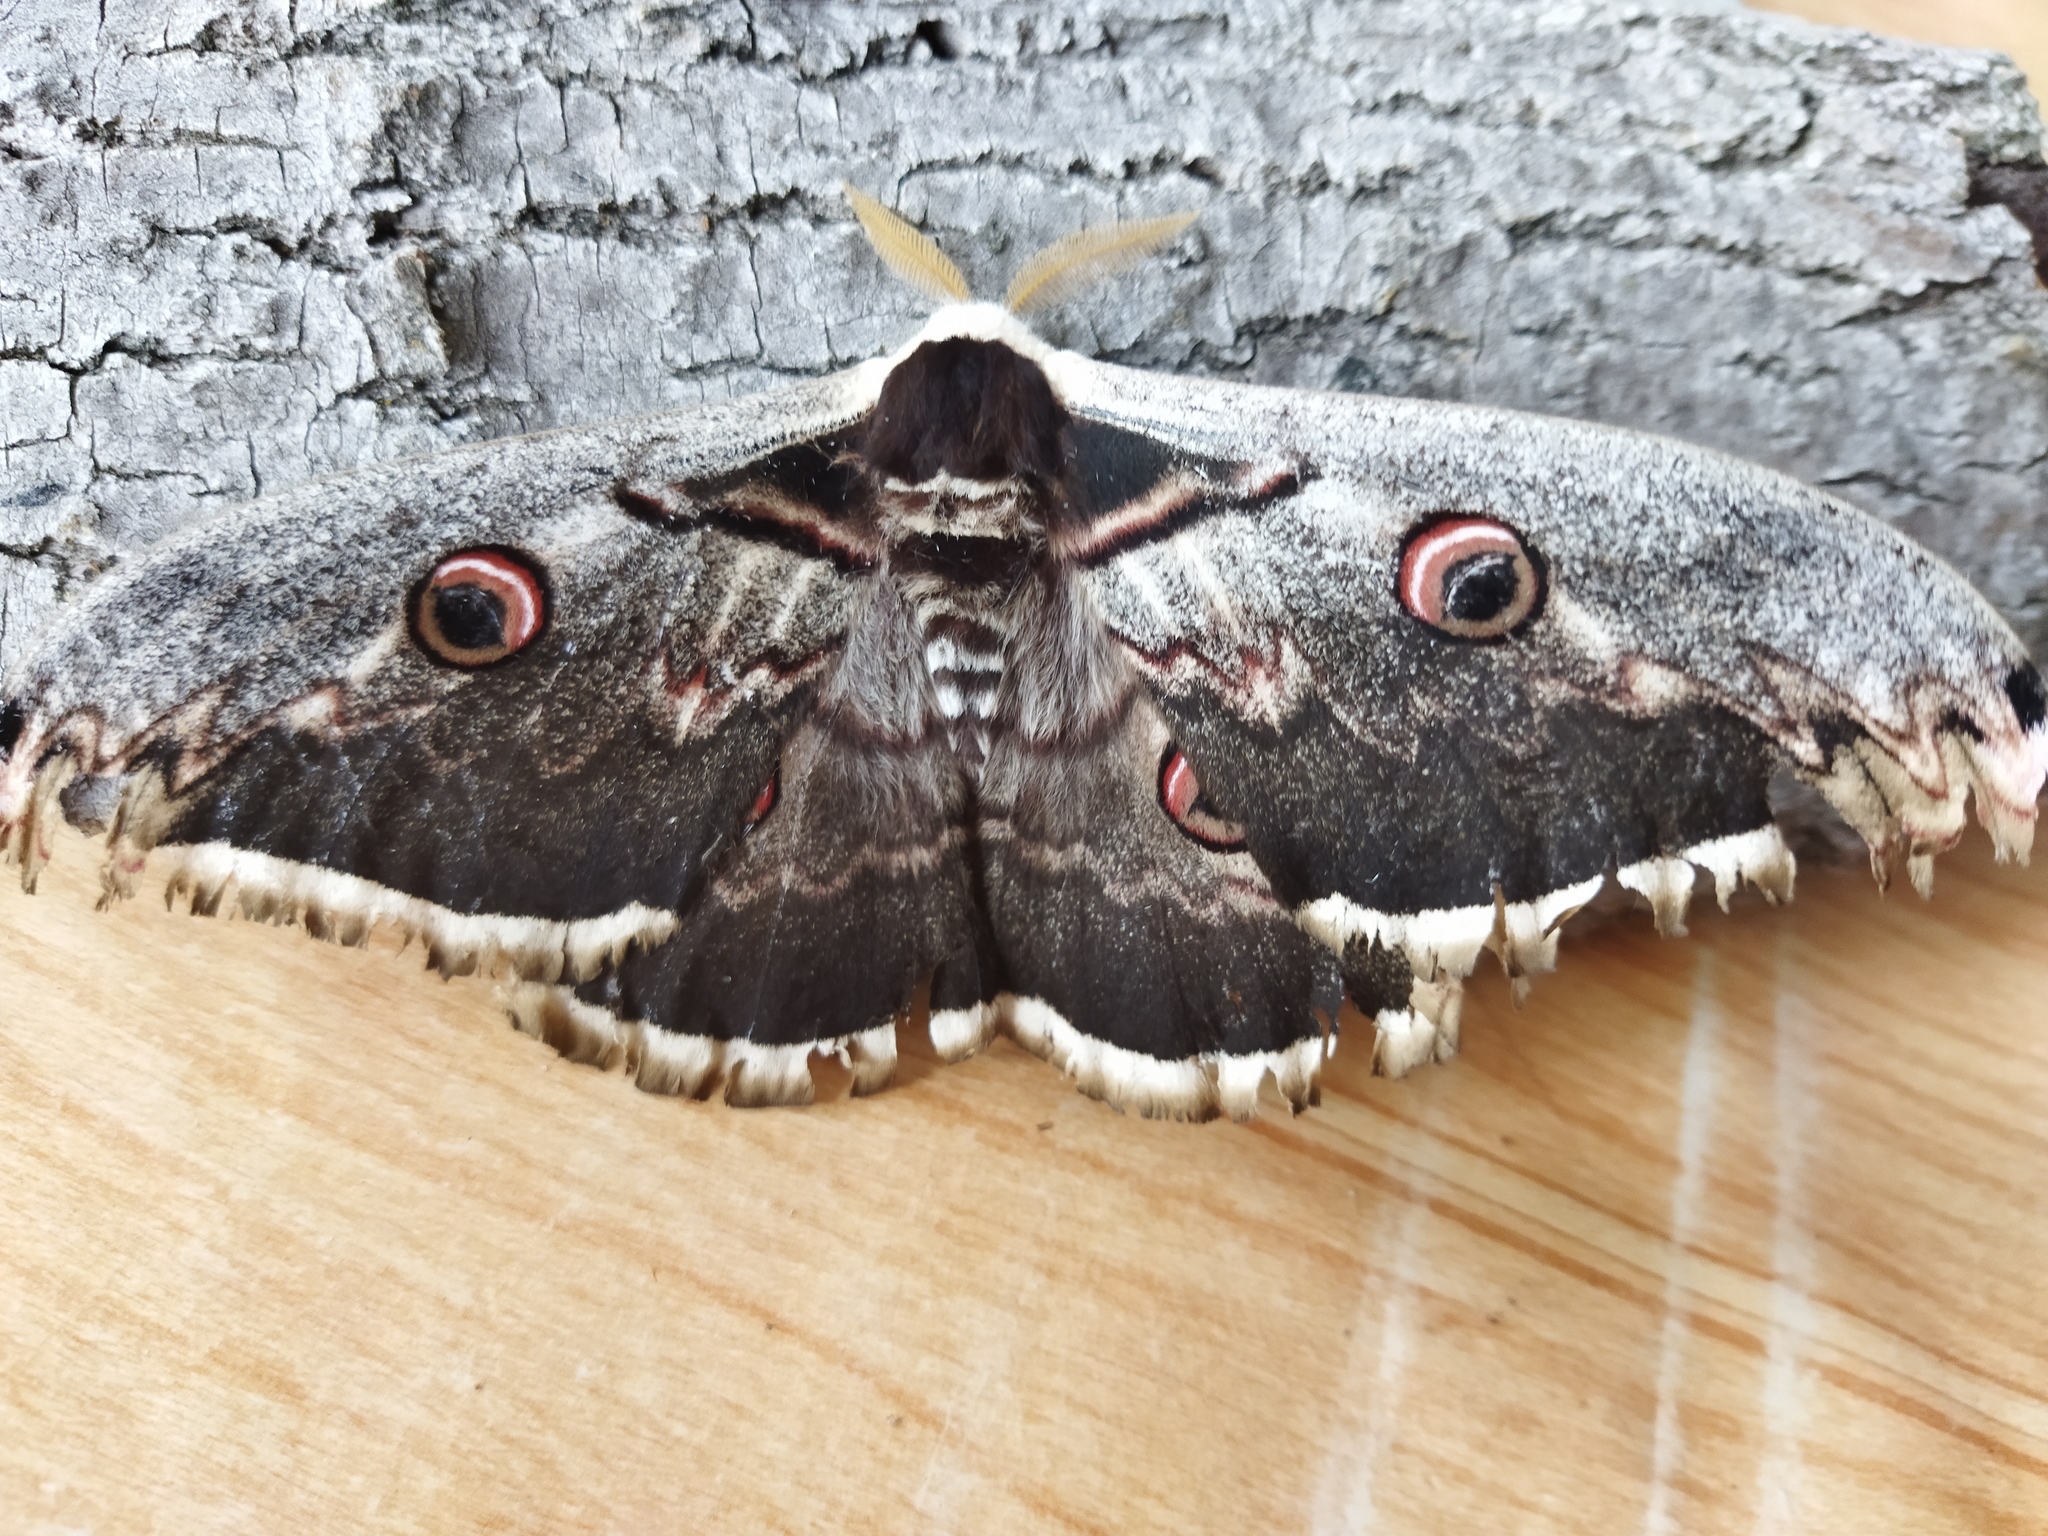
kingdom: Animalia
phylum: Arthropoda
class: Insecta
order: Lepidoptera
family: Saturniidae
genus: Saturnia
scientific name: Saturnia pyri
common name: Great peacock moth
